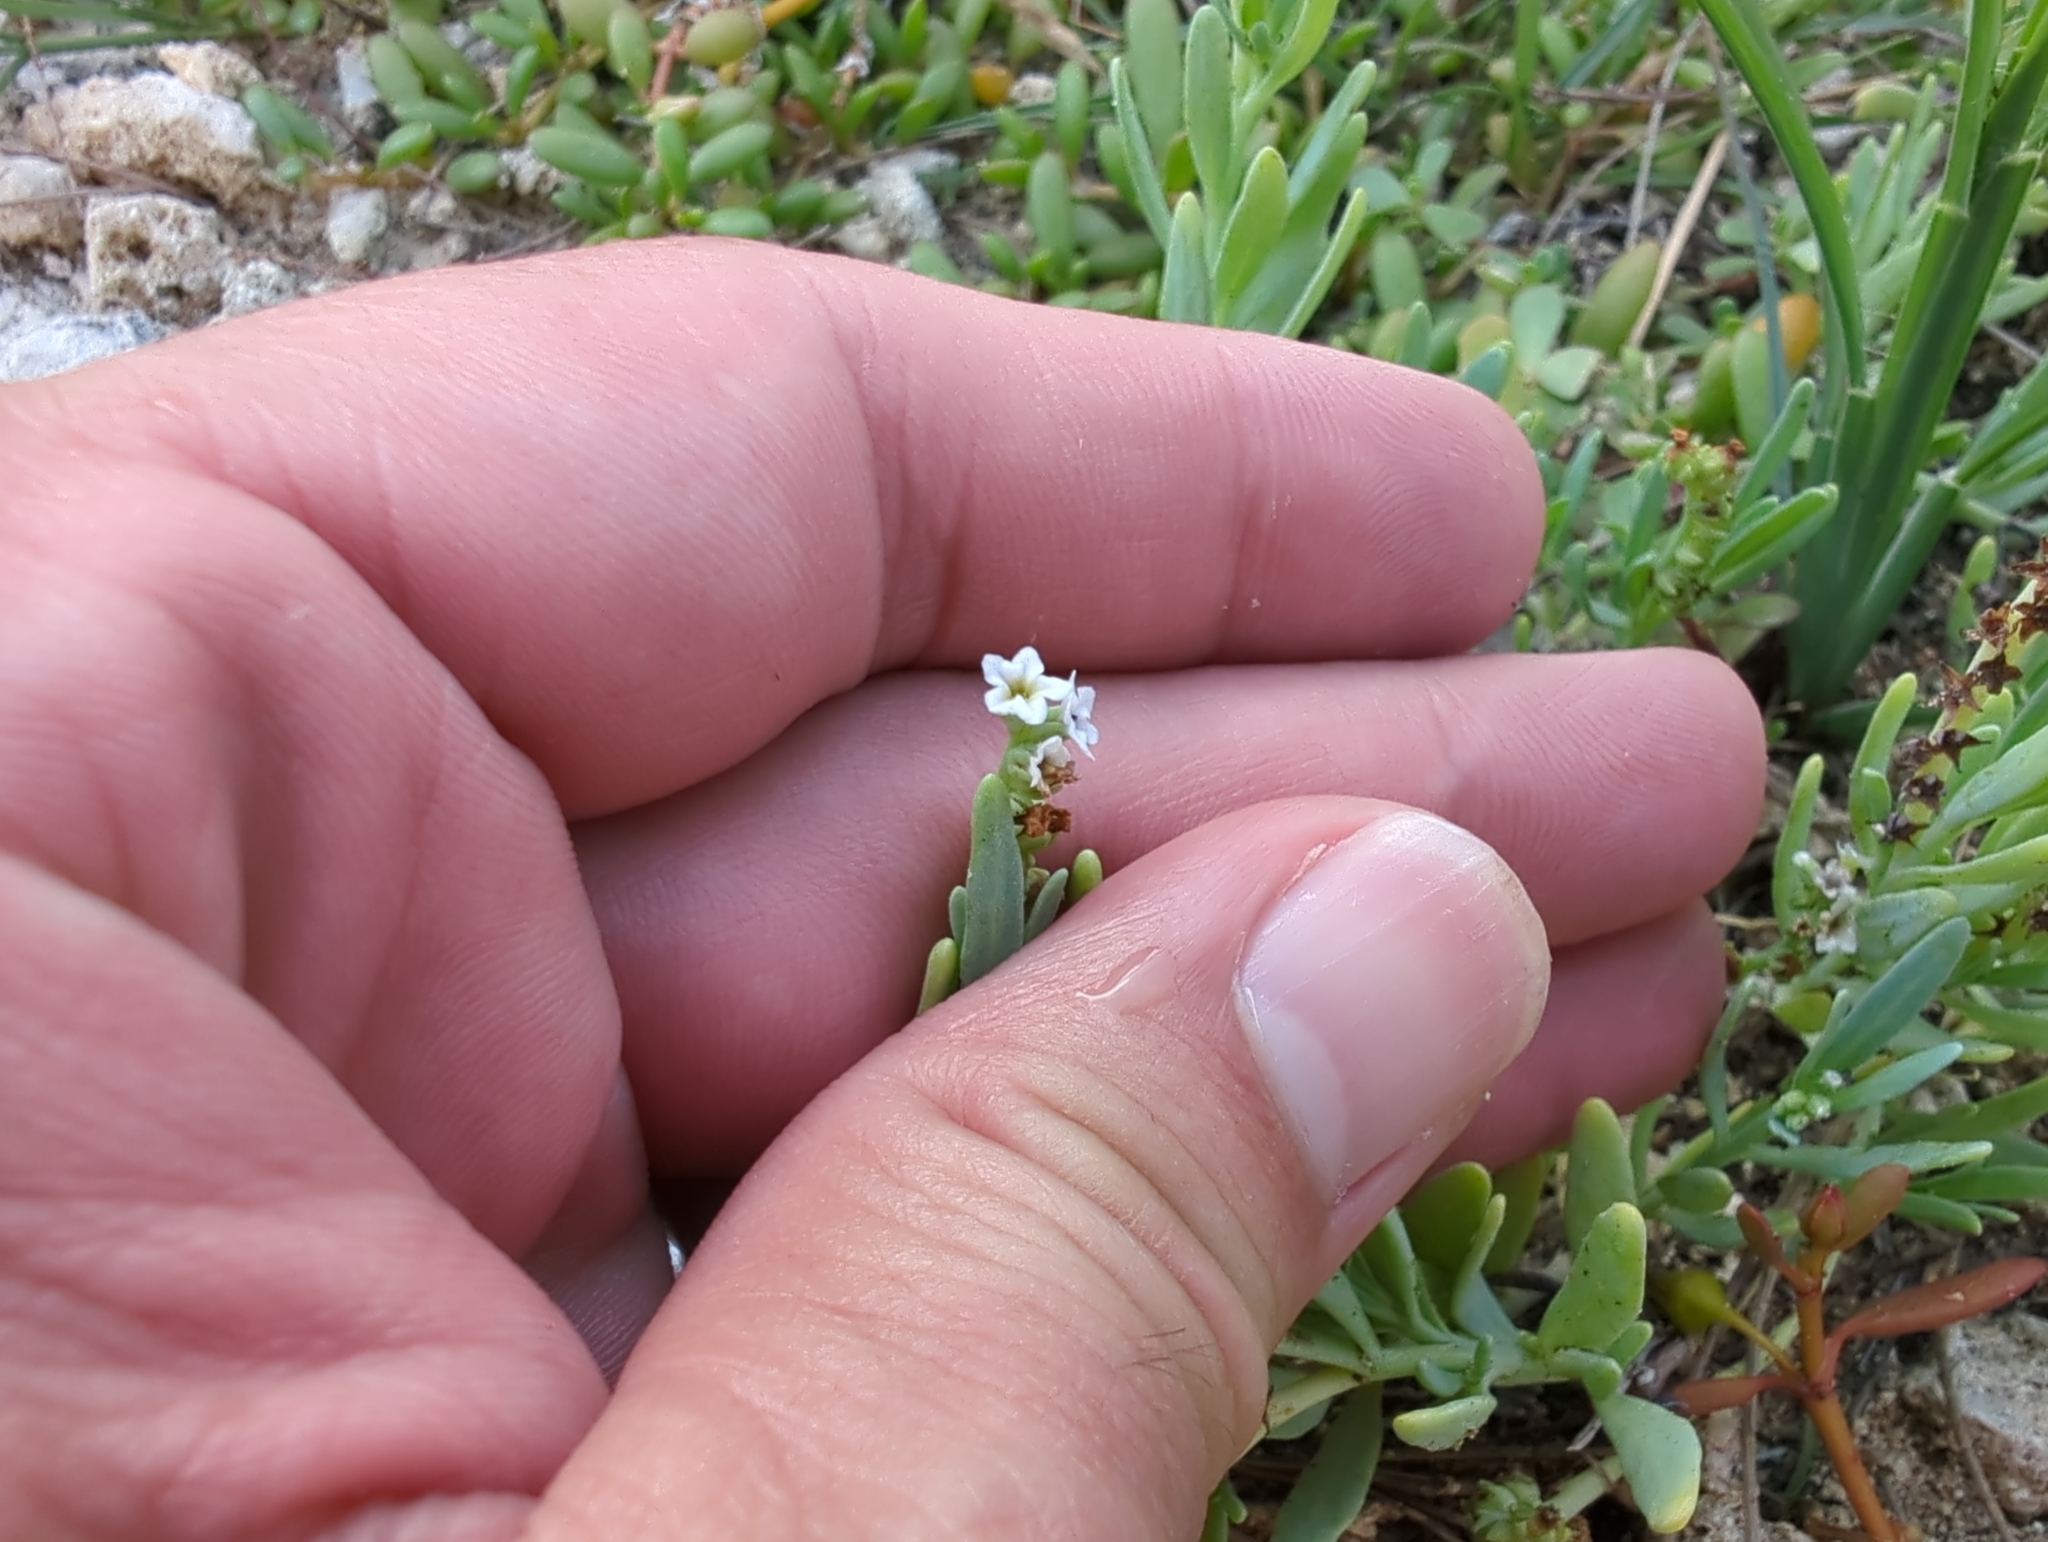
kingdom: Plantae
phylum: Tracheophyta
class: Magnoliopsida
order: Boraginales
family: Heliotropiaceae
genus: Heliotropium
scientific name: Heliotropium curassavicum
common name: Seaside heliotrope
